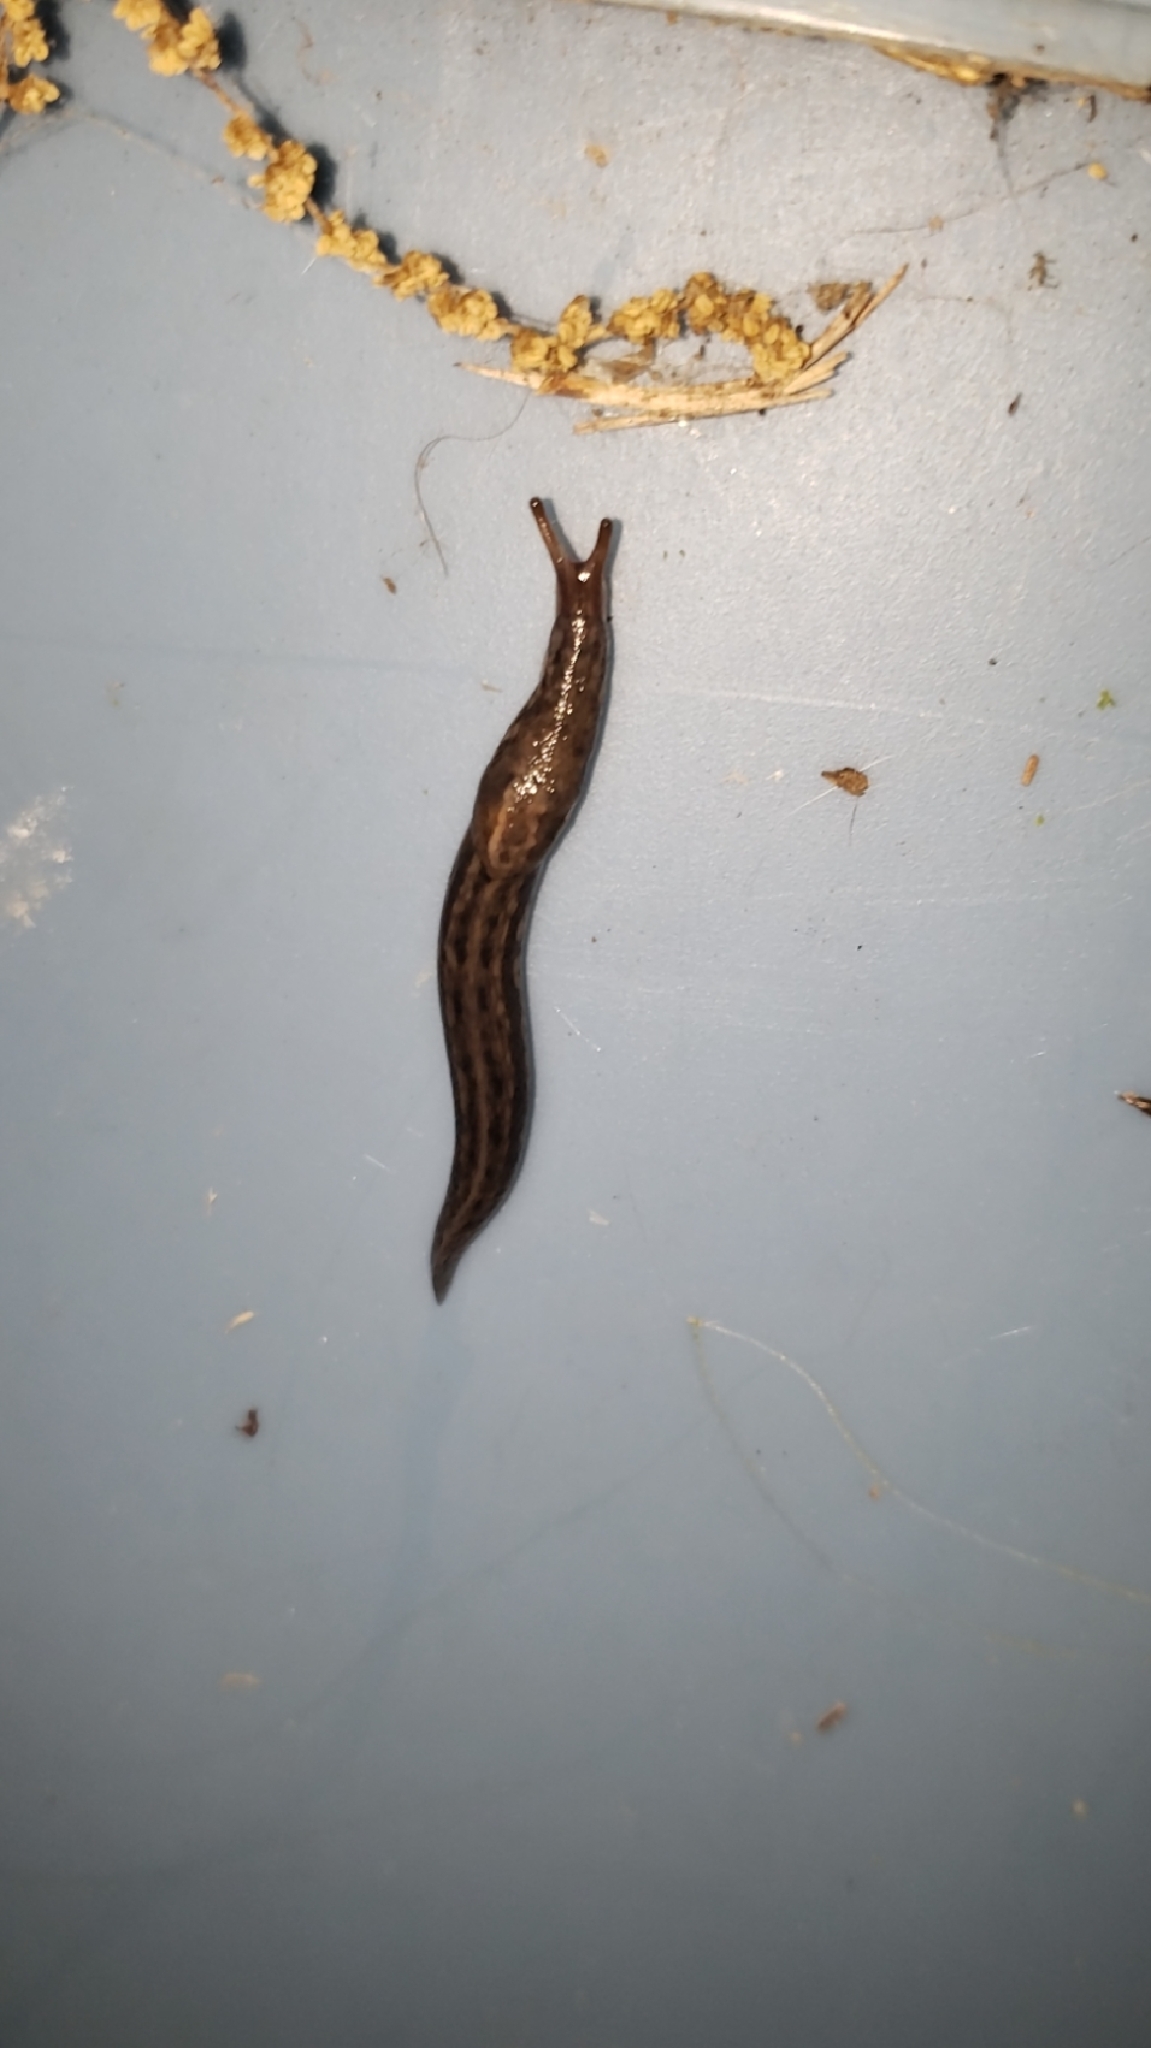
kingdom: Animalia
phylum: Mollusca
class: Gastropoda
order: Stylommatophora
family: Limacidae
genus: Limax
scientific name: Limax maximus
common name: Great grey slug
